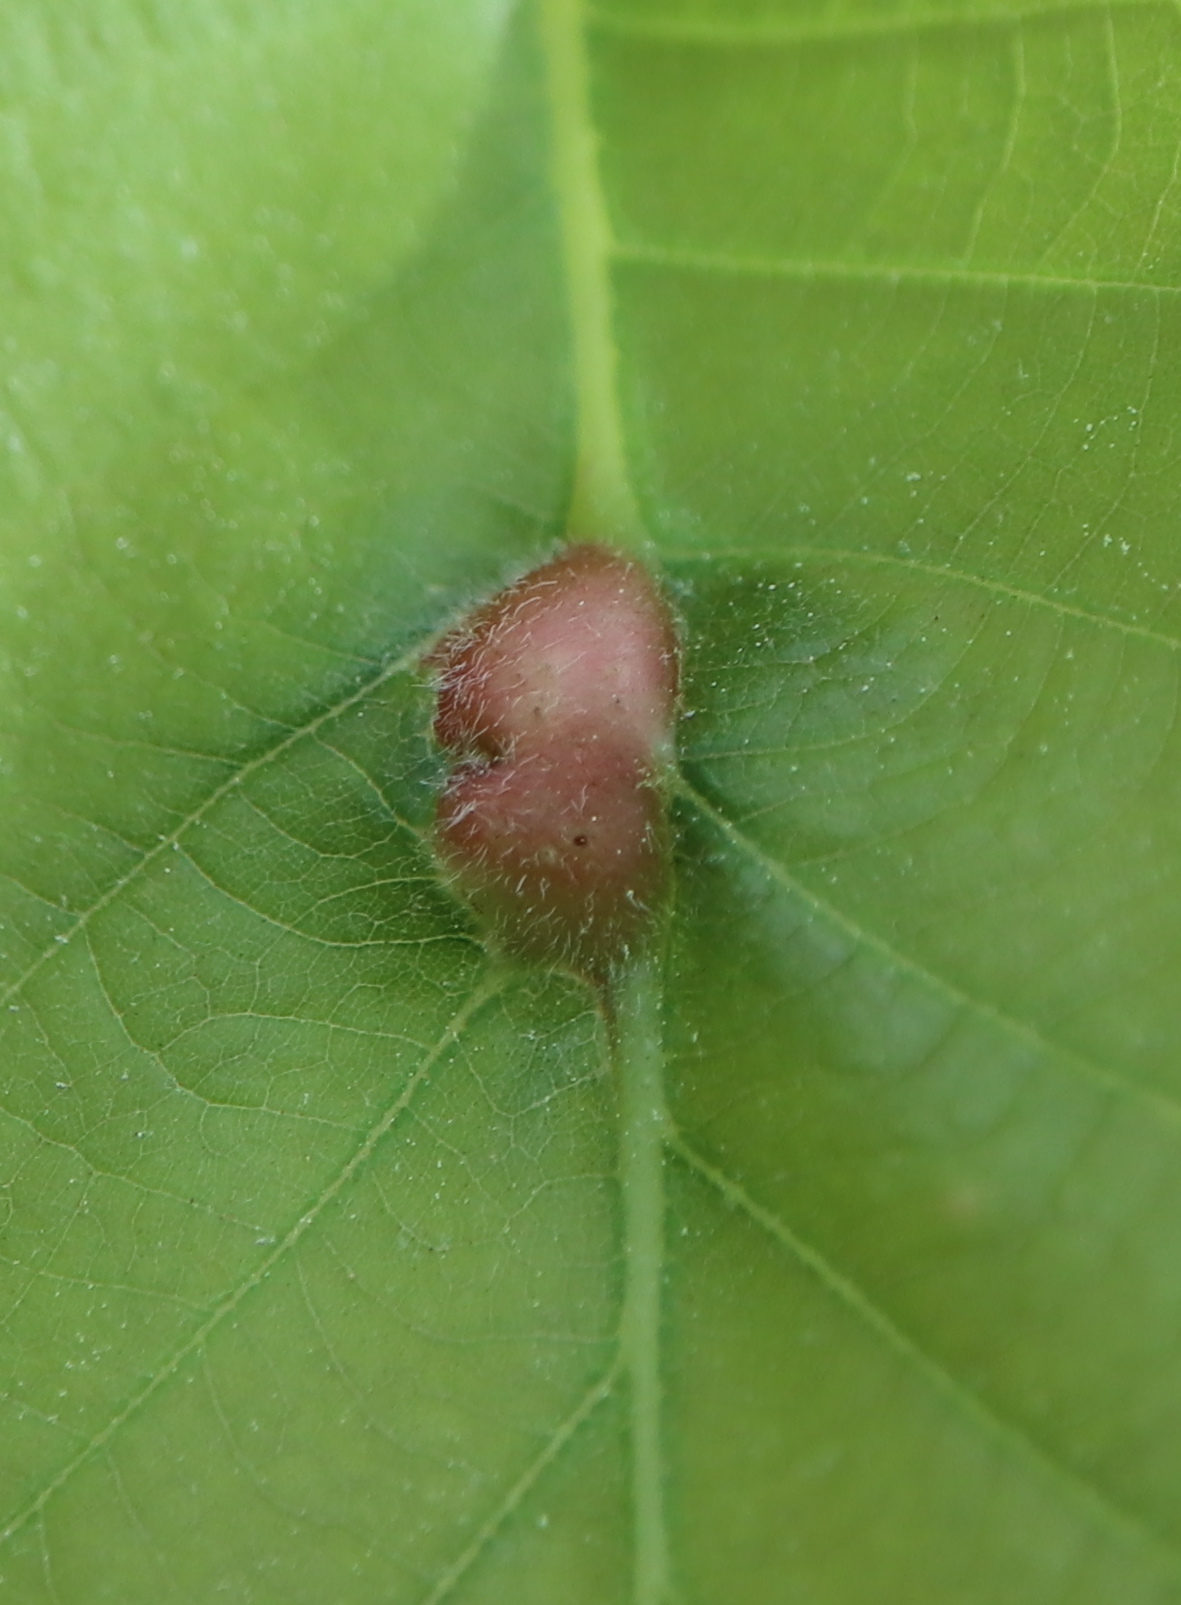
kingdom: Animalia
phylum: Arthropoda
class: Insecta
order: Hymenoptera
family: Cynipidae
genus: Andricus
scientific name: Andricus
